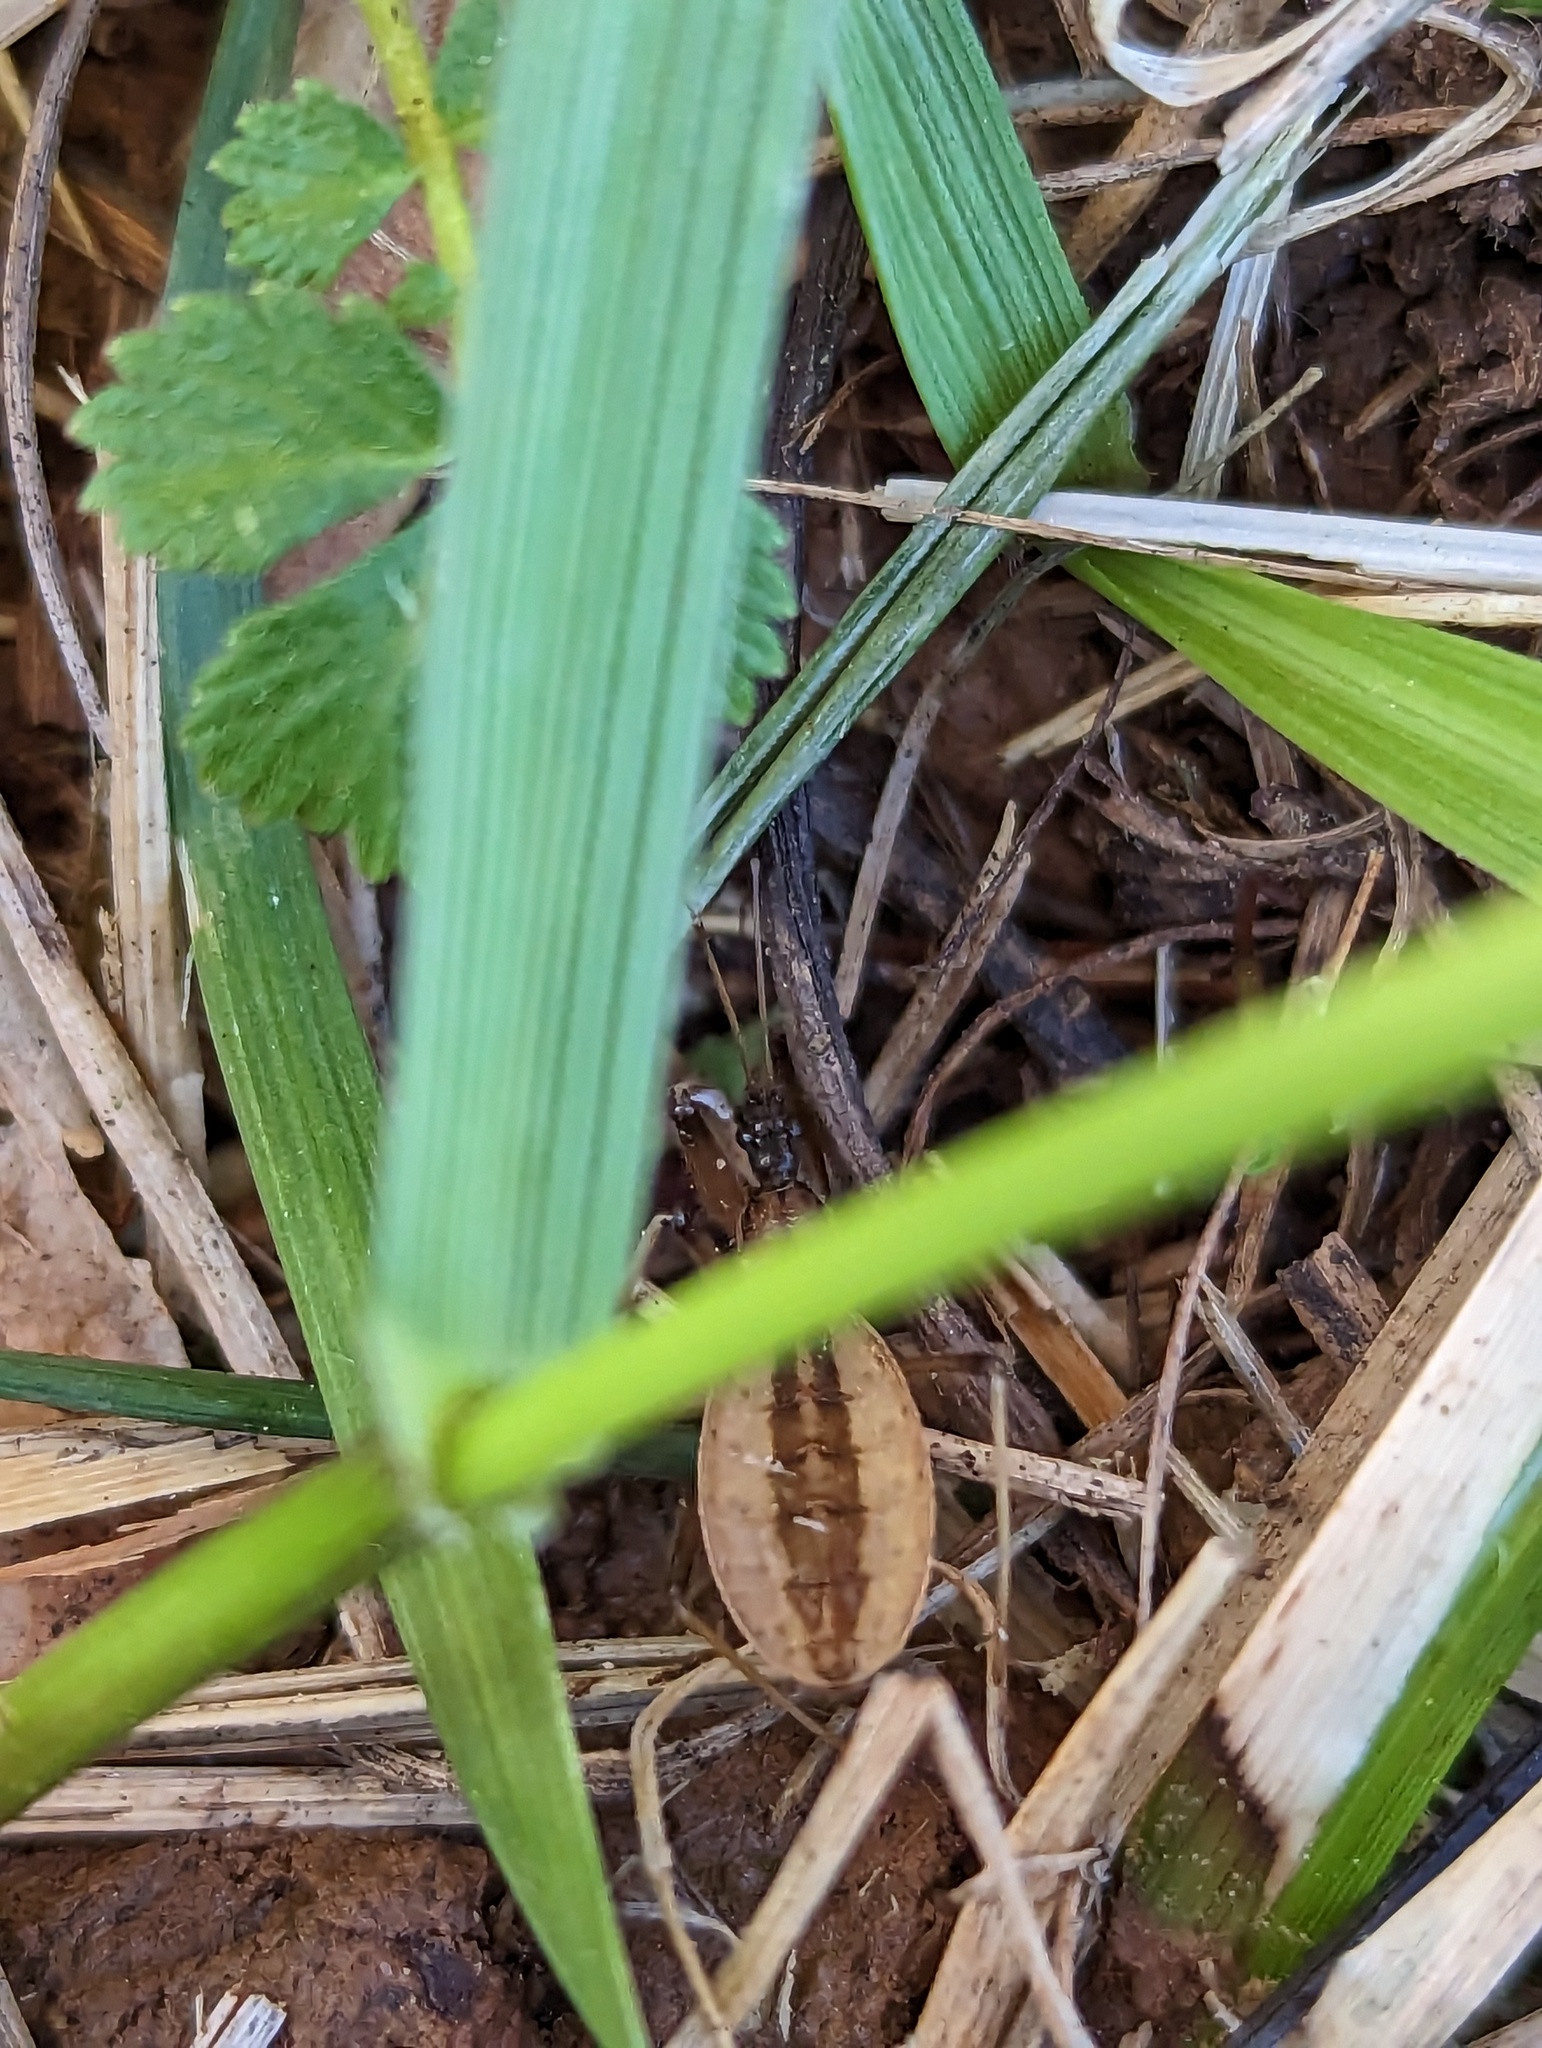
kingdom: Animalia
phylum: Arthropoda
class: Insecta
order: Hemiptera
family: Reduviidae
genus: Fitchia
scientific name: Fitchia aptera
